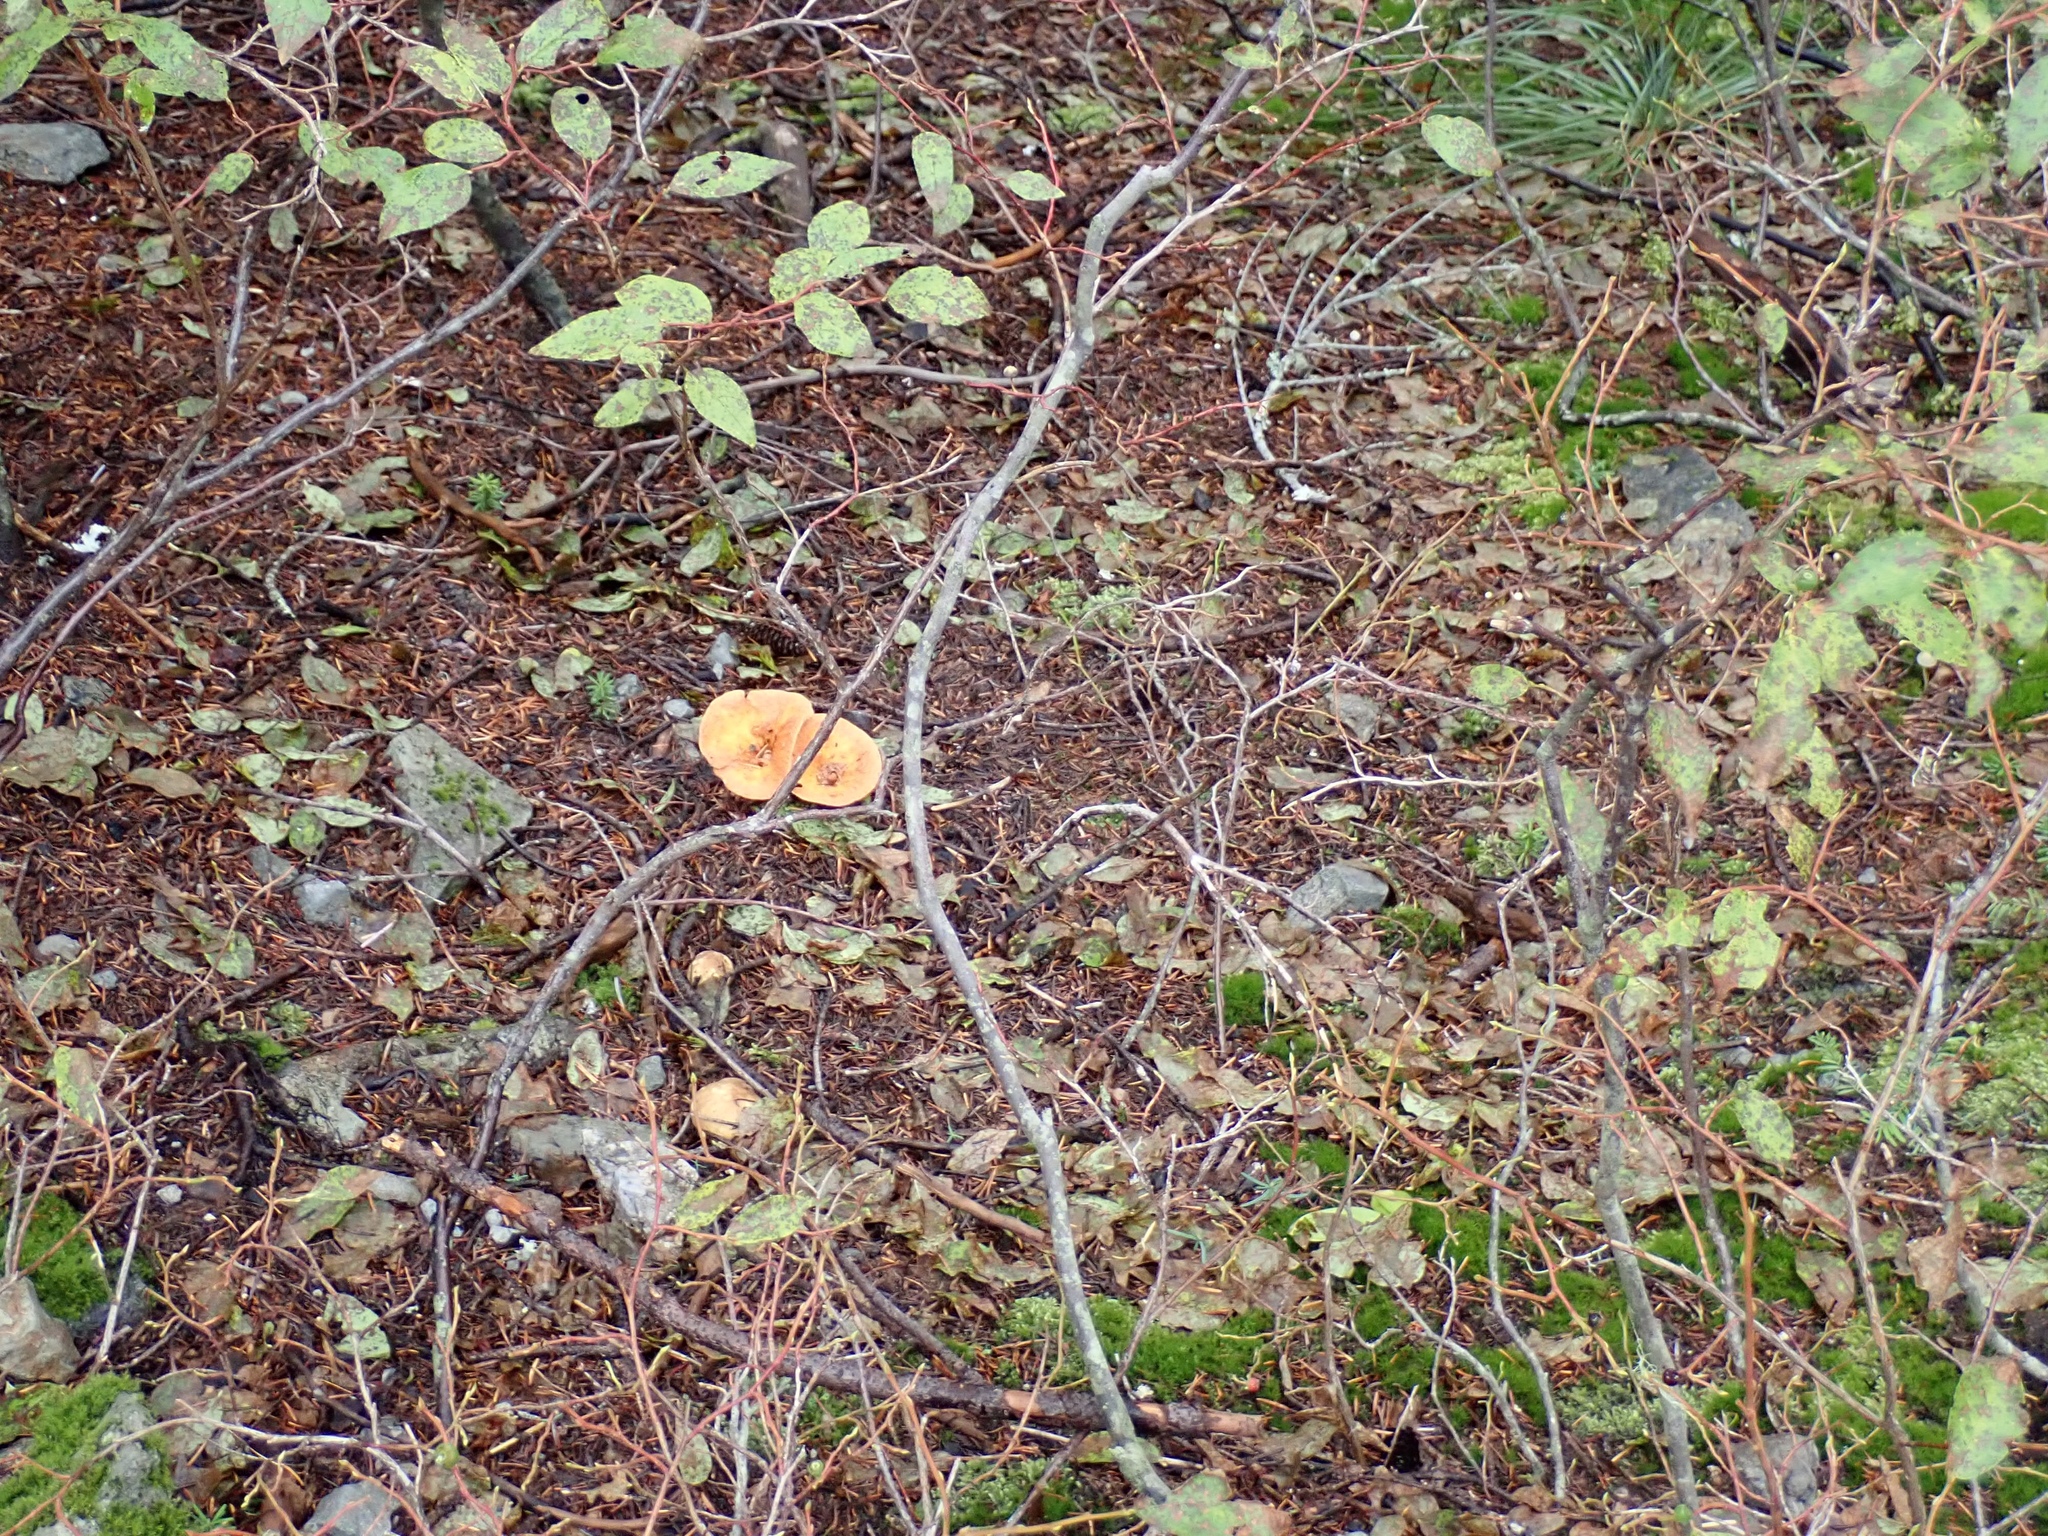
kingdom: Fungi
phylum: Basidiomycota
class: Agaricomycetes
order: Gomphales
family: Gomphaceae
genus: Turbinellus
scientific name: Turbinellus floccosus
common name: Scaly chanterelle
